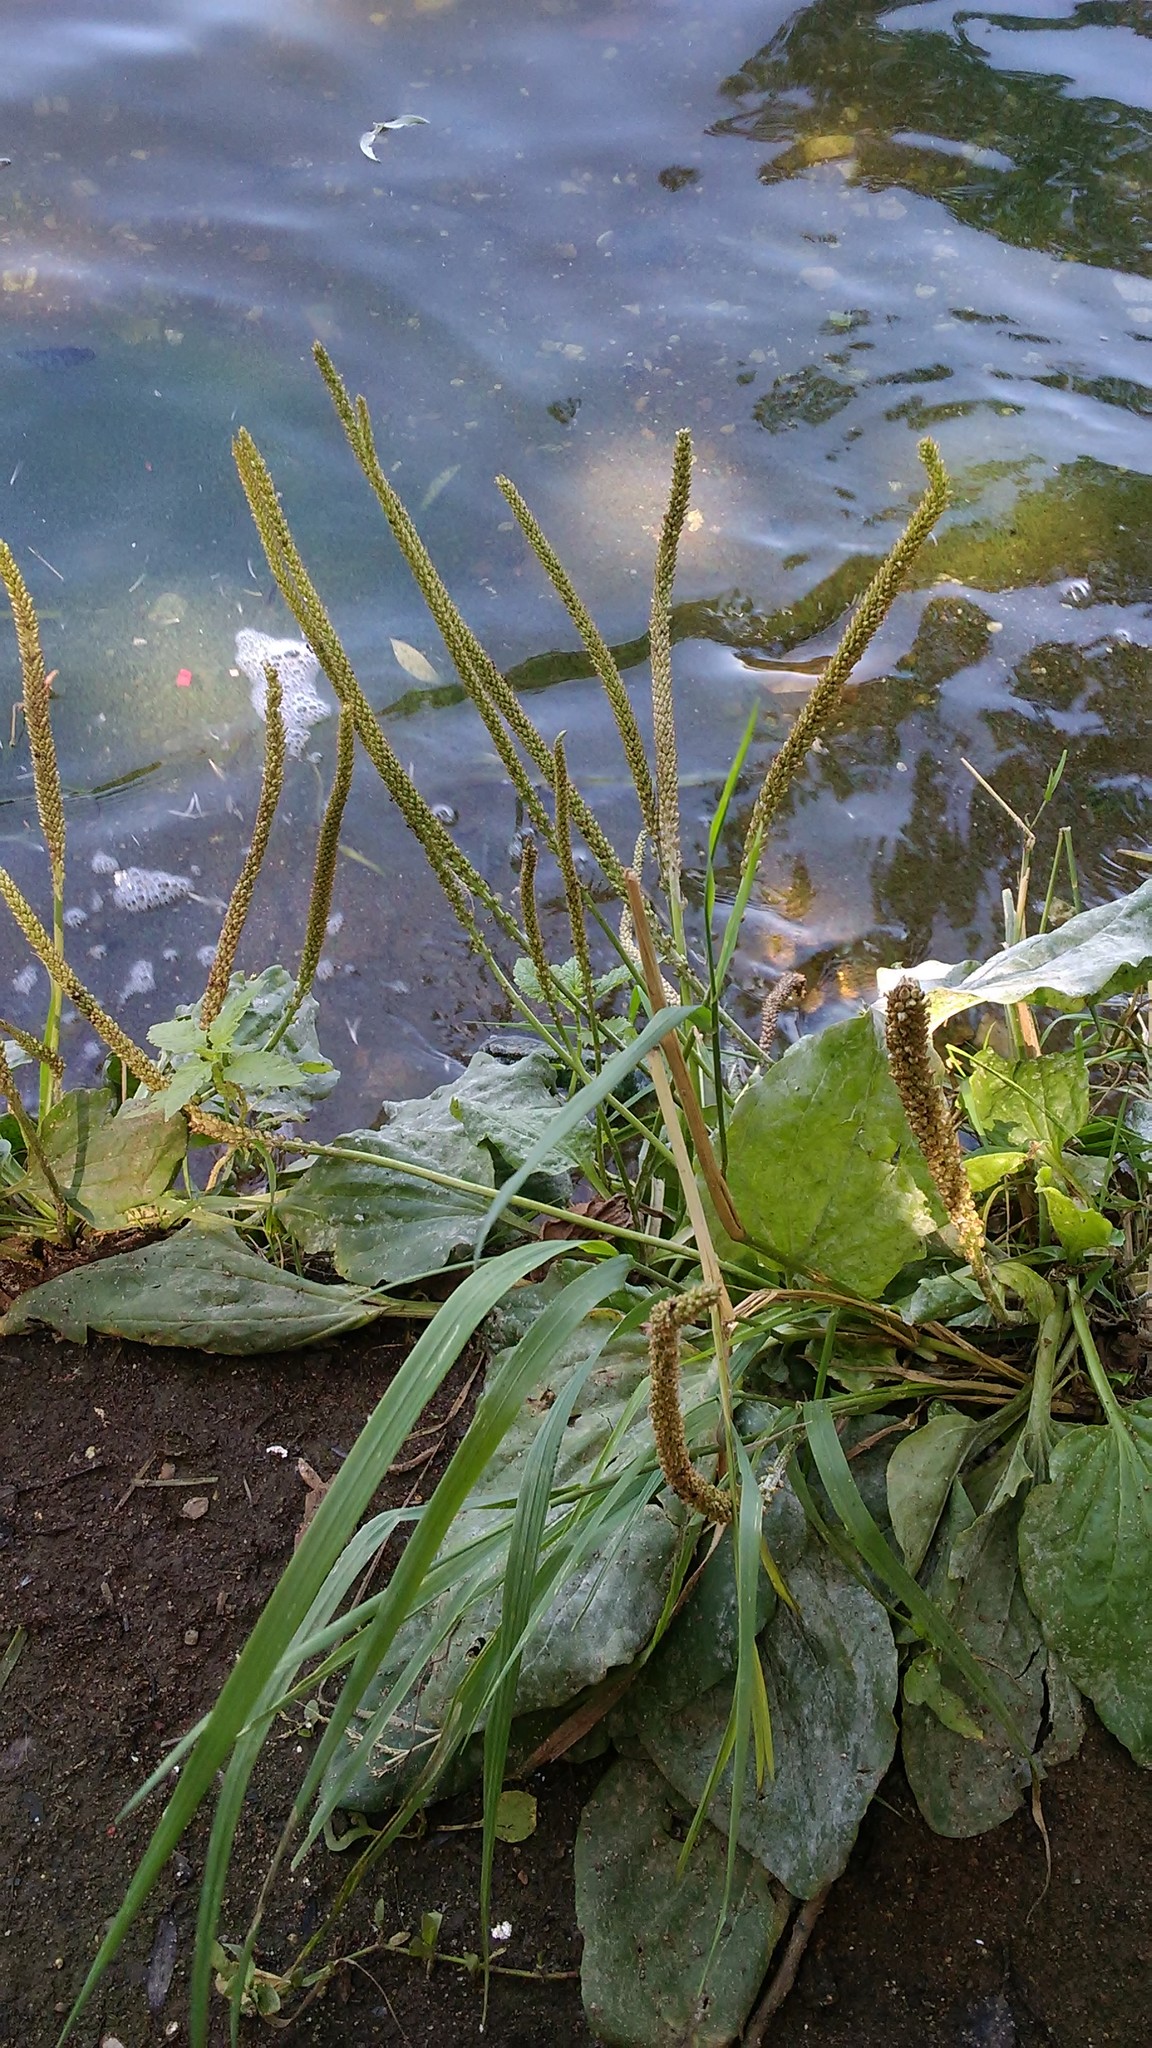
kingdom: Plantae
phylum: Tracheophyta
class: Magnoliopsida
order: Lamiales
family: Plantaginaceae
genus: Plantago
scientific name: Plantago major
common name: Common plantain
